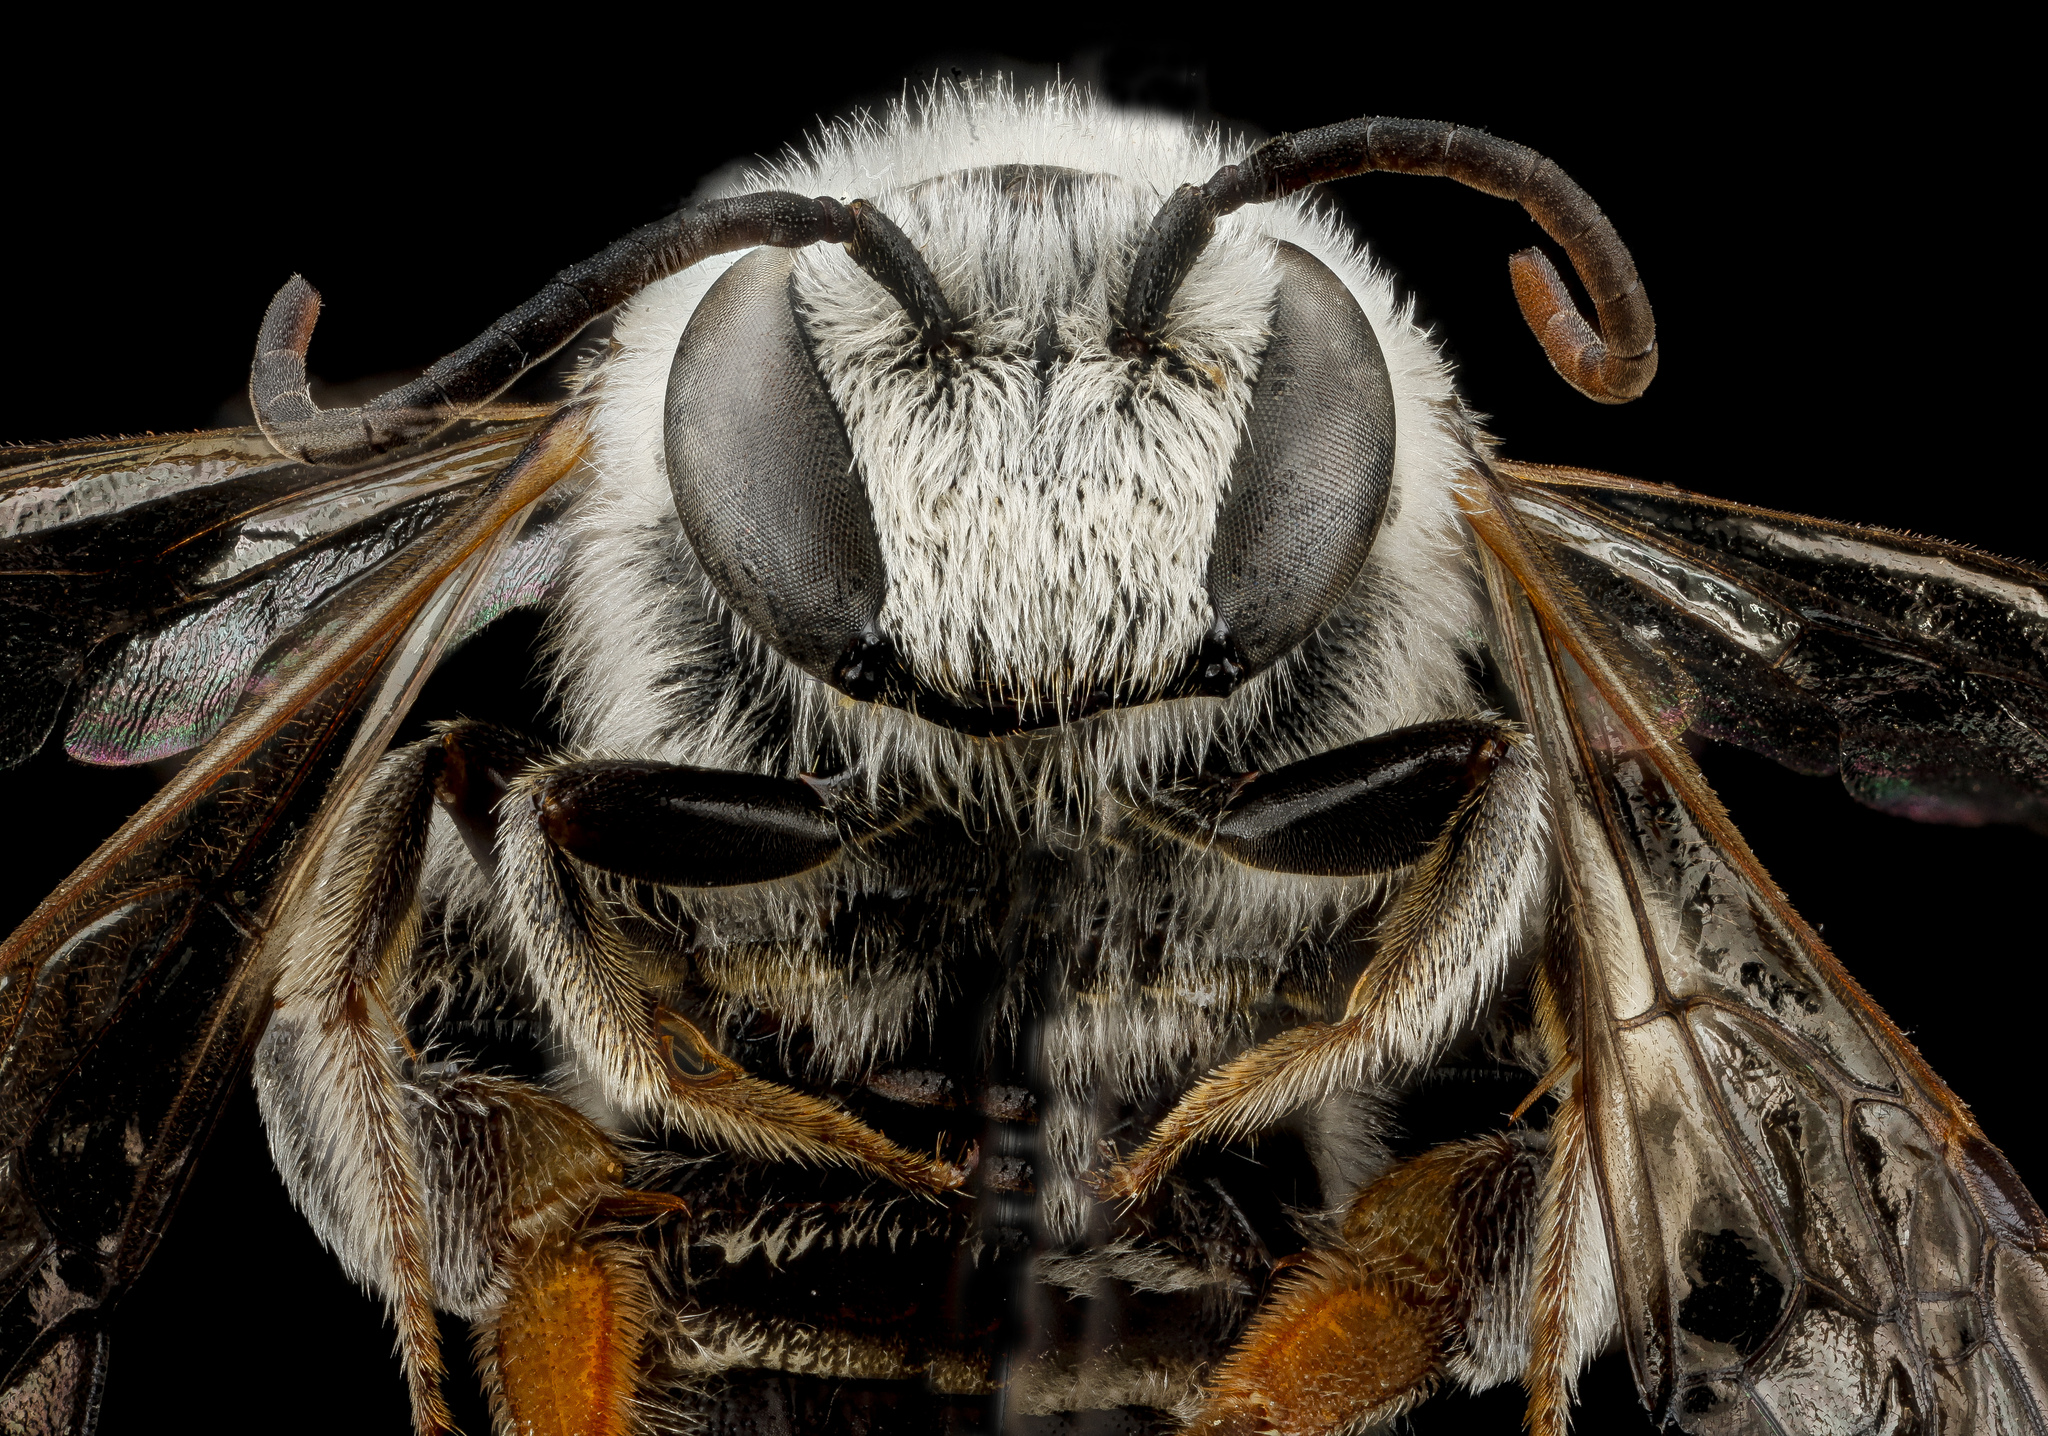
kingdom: Animalia
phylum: Arthropoda
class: Insecta
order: Hymenoptera
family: Halictidae
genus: Nomia
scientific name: Nomia universitatis
